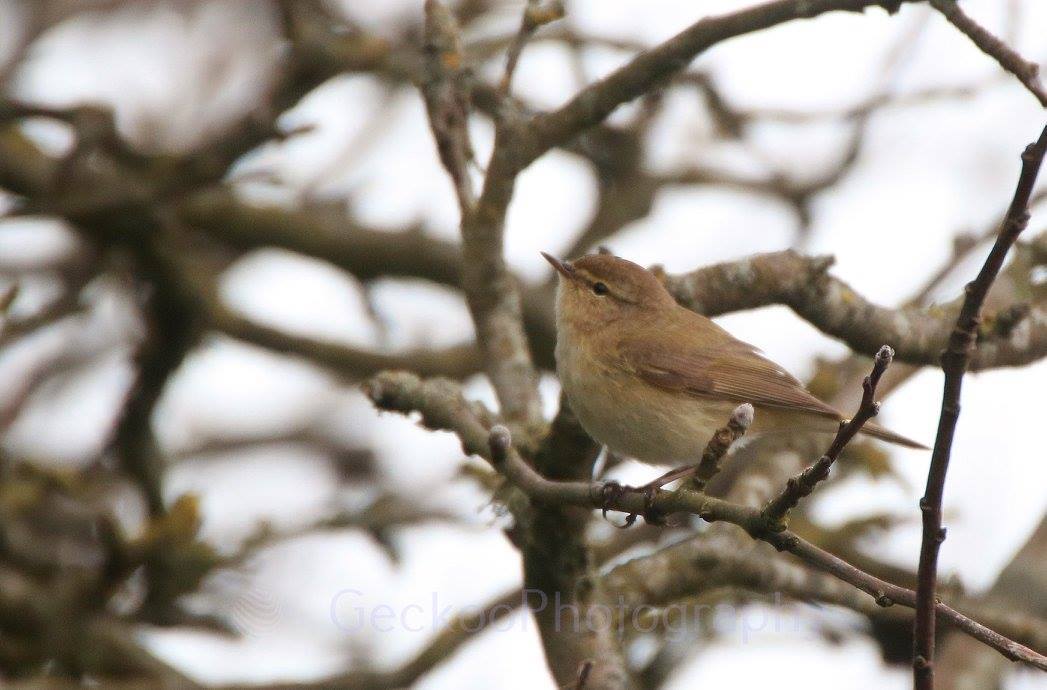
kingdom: Animalia
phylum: Chordata
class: Aves
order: Passeriformes
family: Phylloscopidae
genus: Phylloscopus
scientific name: Phylloscopus collybita
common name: Common chiffchaff
